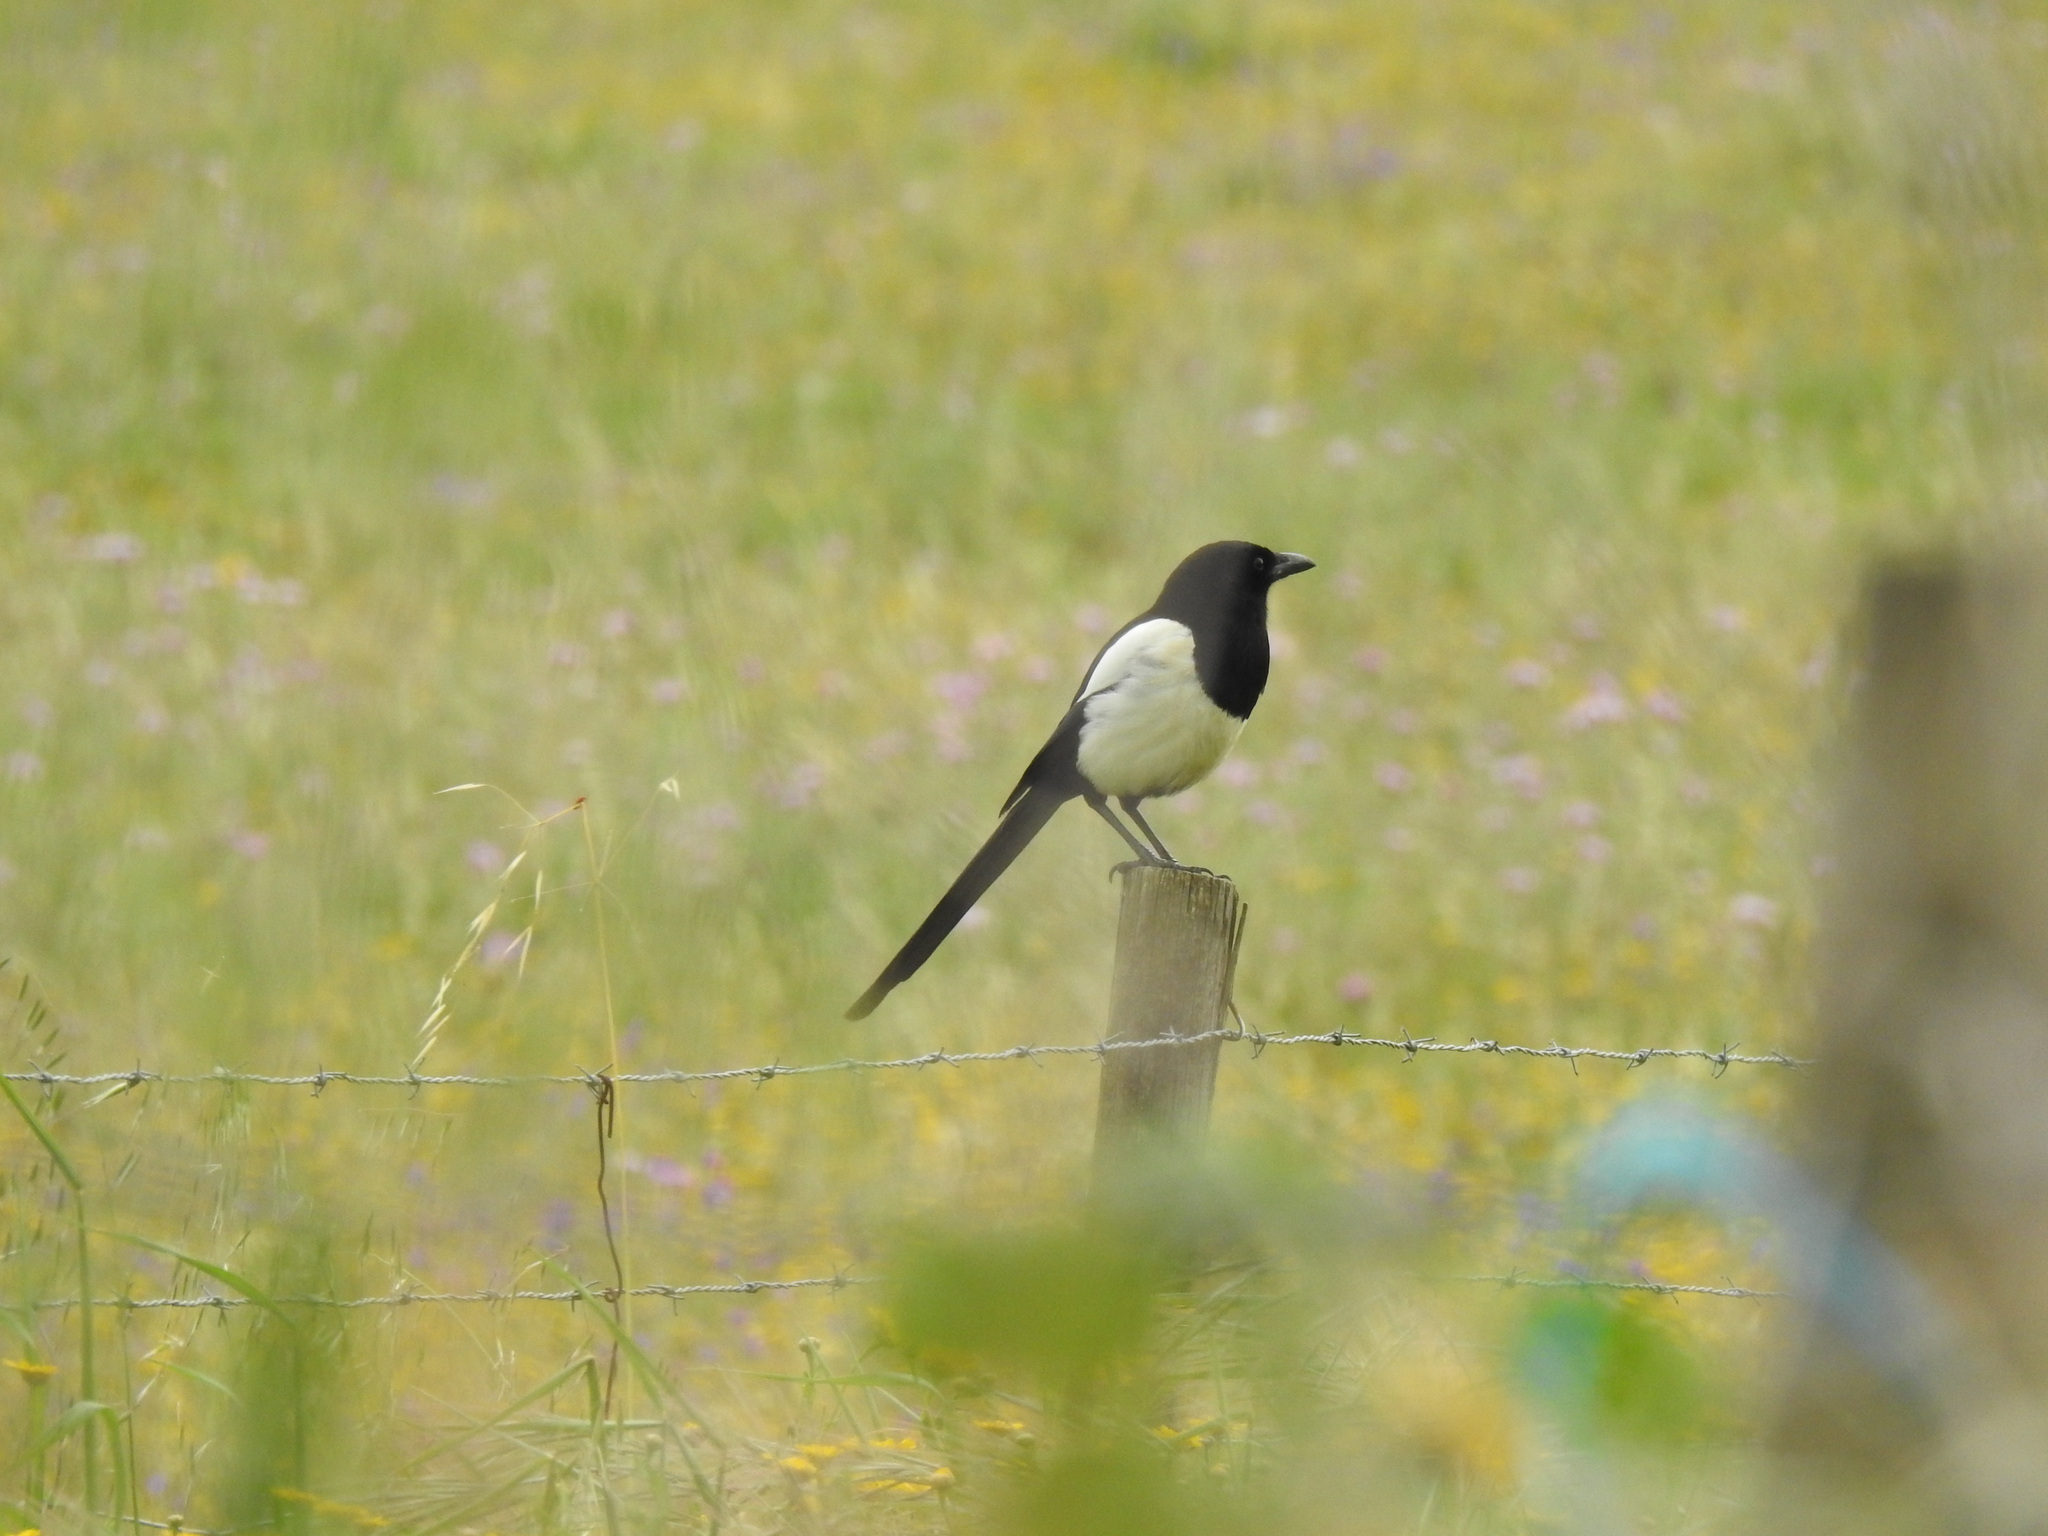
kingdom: Animalia
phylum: Chordata
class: Aves
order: Passeriformes
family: Corvidae
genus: Pica
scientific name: Pica pica
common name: Eurasian magpie
